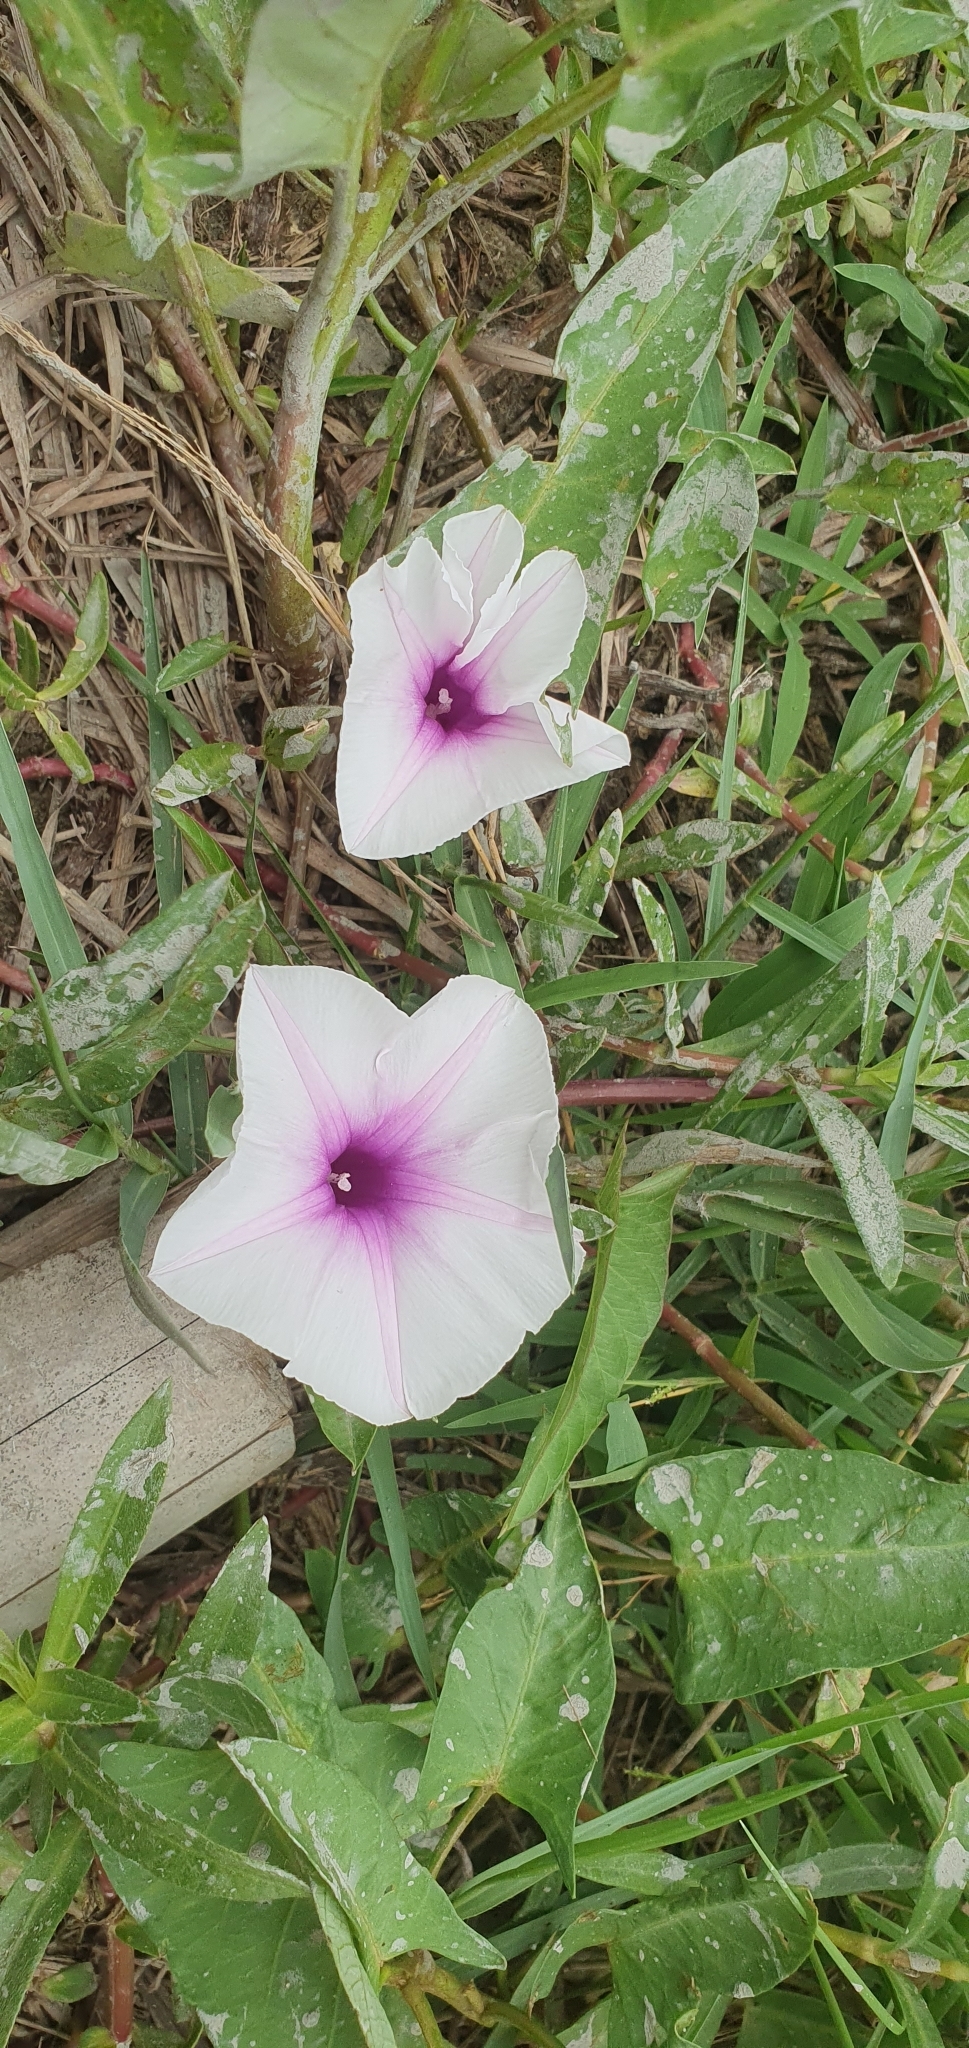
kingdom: Plantae
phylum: Tracheophyta
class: Magnoliopsida
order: Solanales
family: Convolvulaceae
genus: Ipomoea
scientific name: Ipomoea aquatica
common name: Swamp morning-glory
